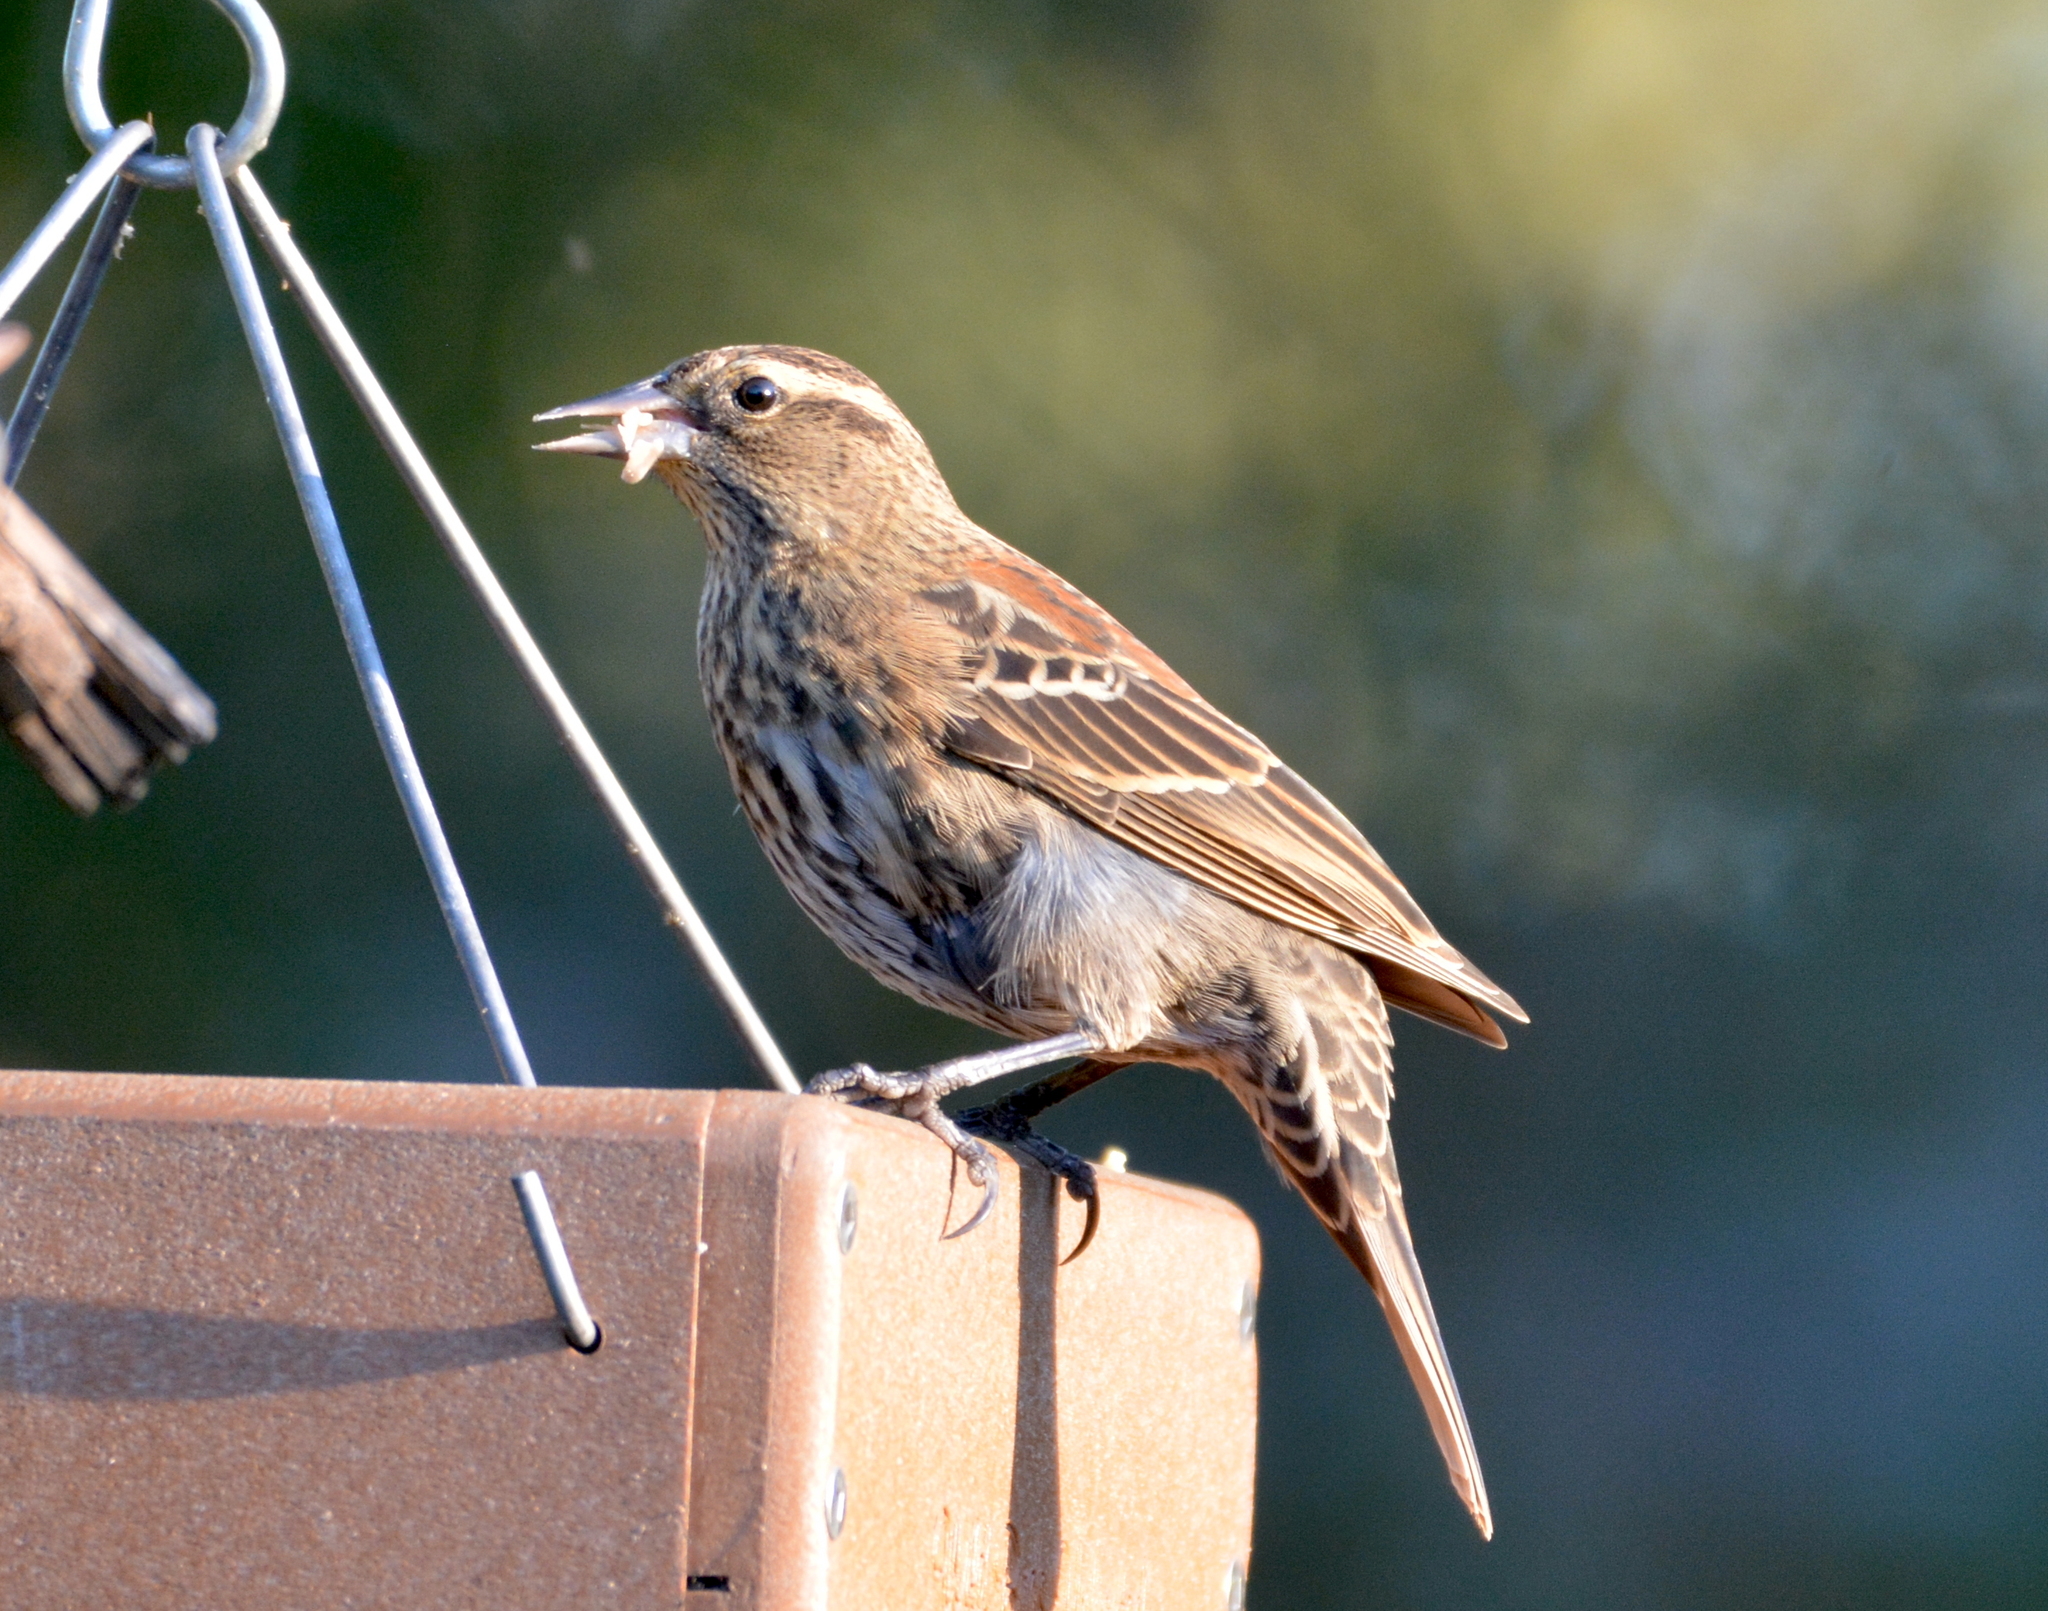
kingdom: Animalia
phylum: Chordata
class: Aves
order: Passeriformes
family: Icteridae
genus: Agelaius
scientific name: Agelaius phoeniceus
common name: Red-winged blackbird
